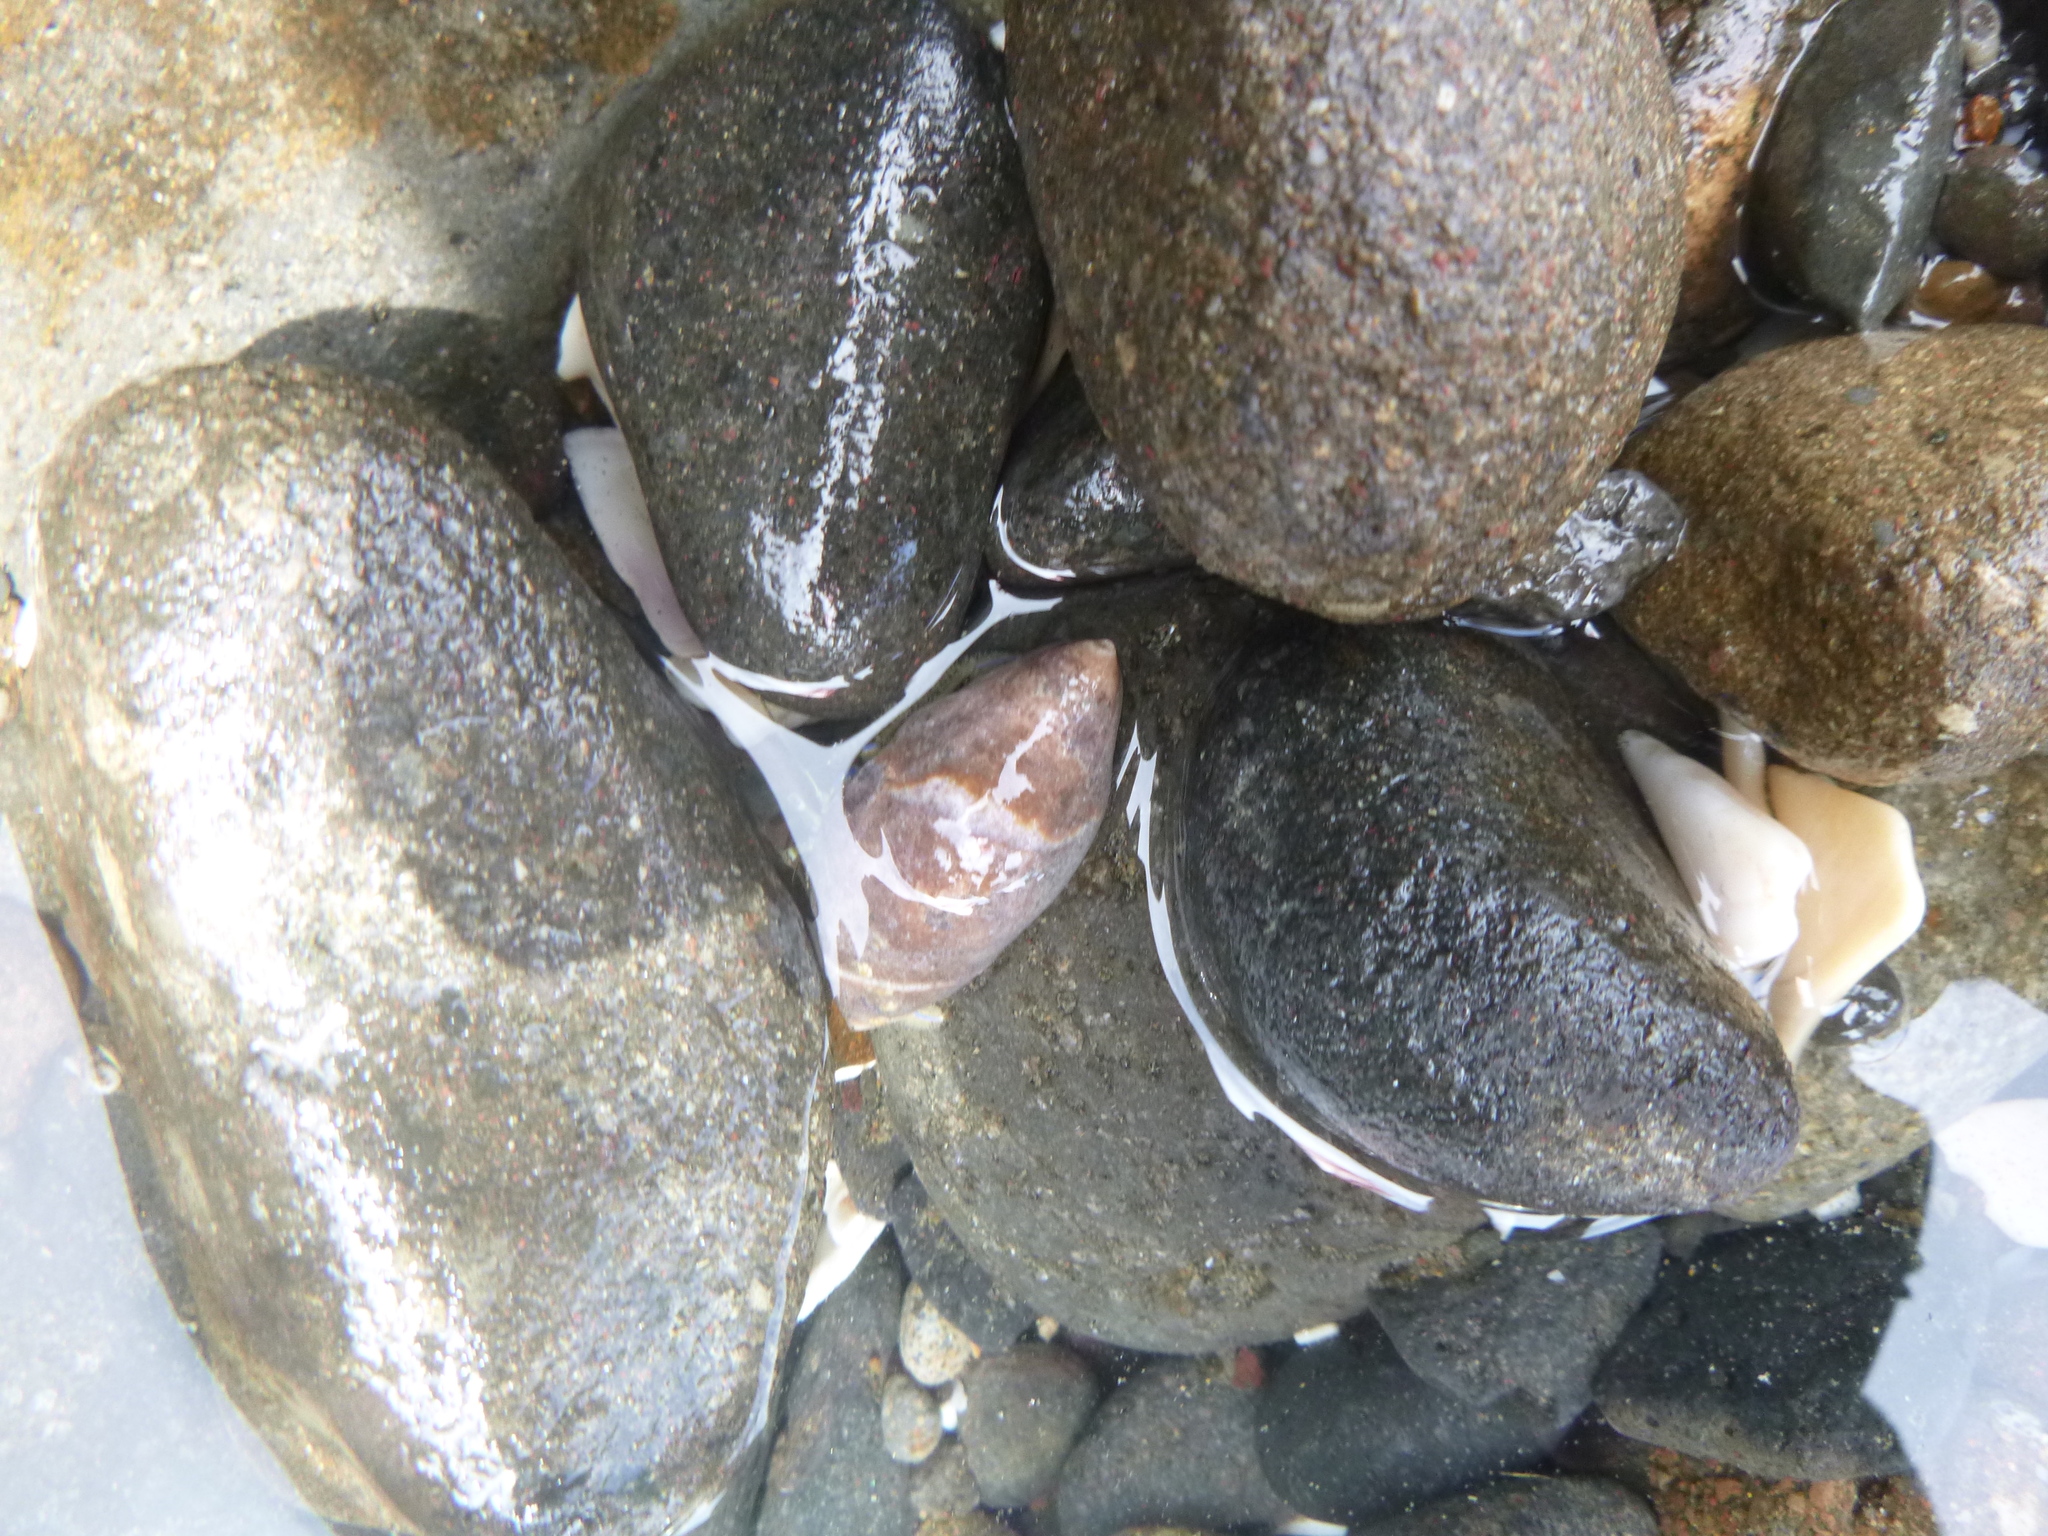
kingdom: Animalia
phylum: Mollusca
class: Gastropoda
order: Neogastropoda
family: Ancillariidae
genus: Amalda
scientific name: Amalda australis
